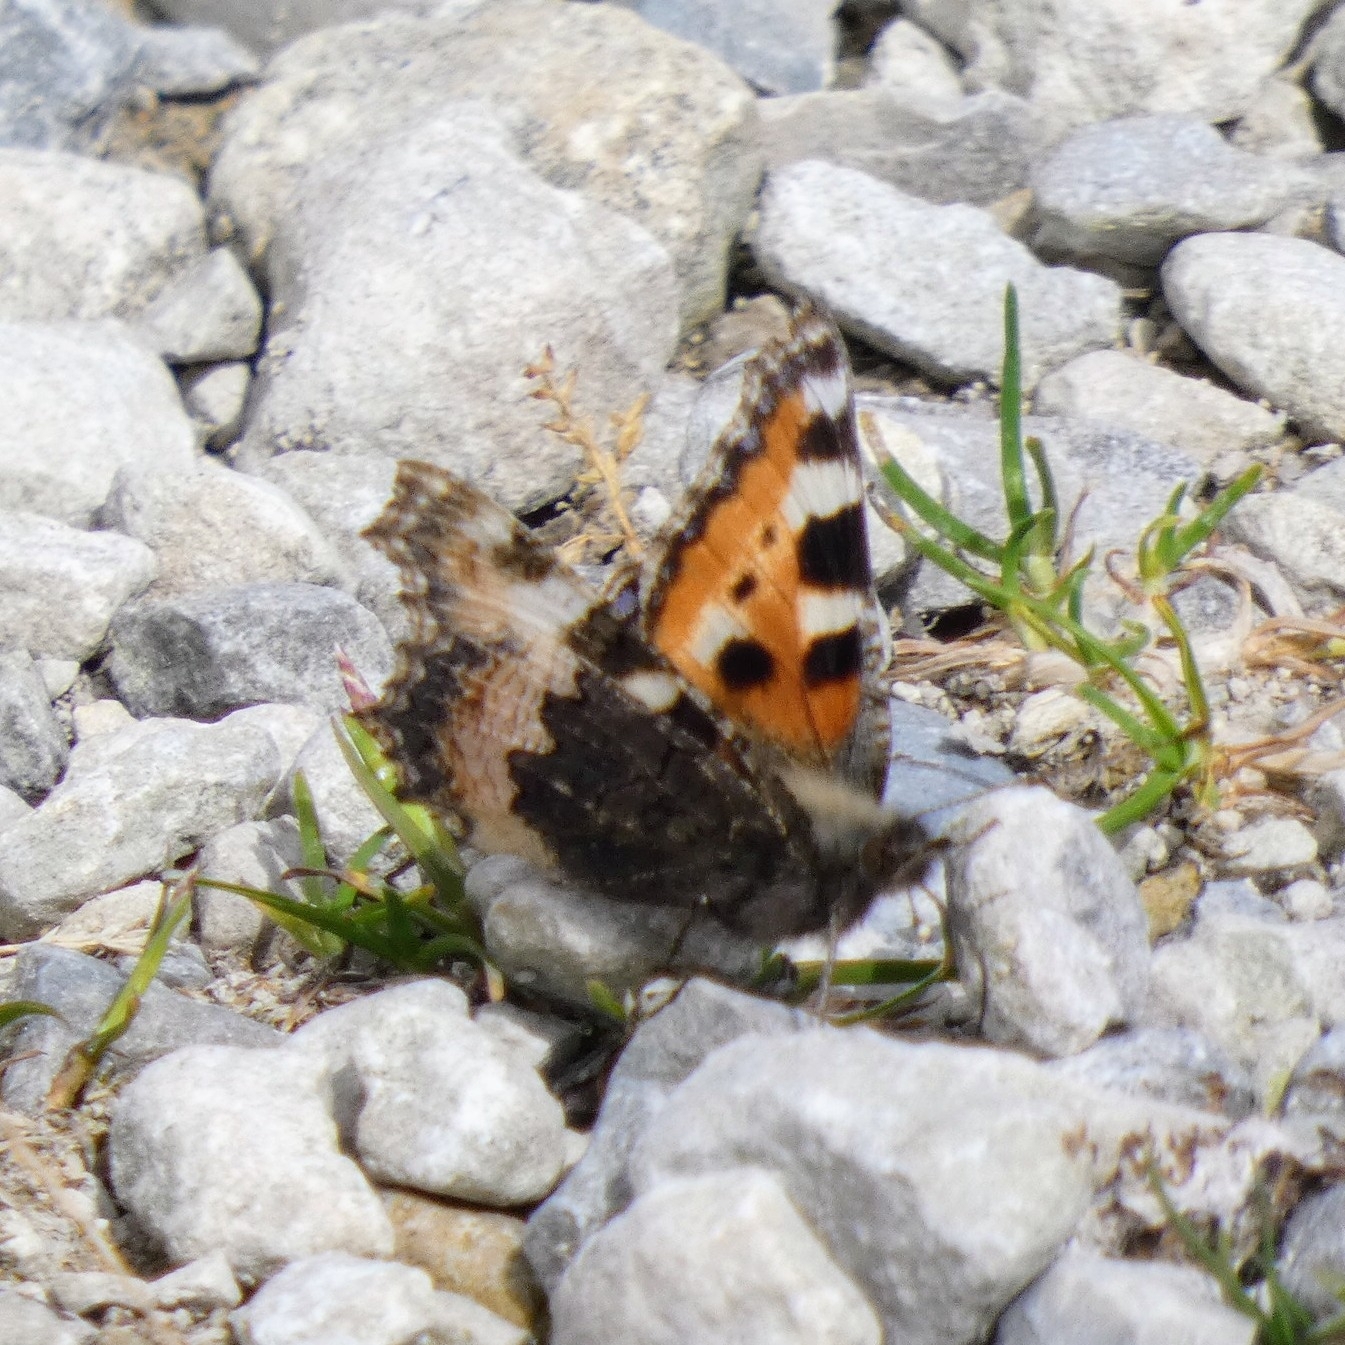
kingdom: Animalia
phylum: Arthropoda
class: Insecta
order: Lepidoptera
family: Nymphalidae
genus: Aglais
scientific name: Aglais urticae
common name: Small tortoiseshell
